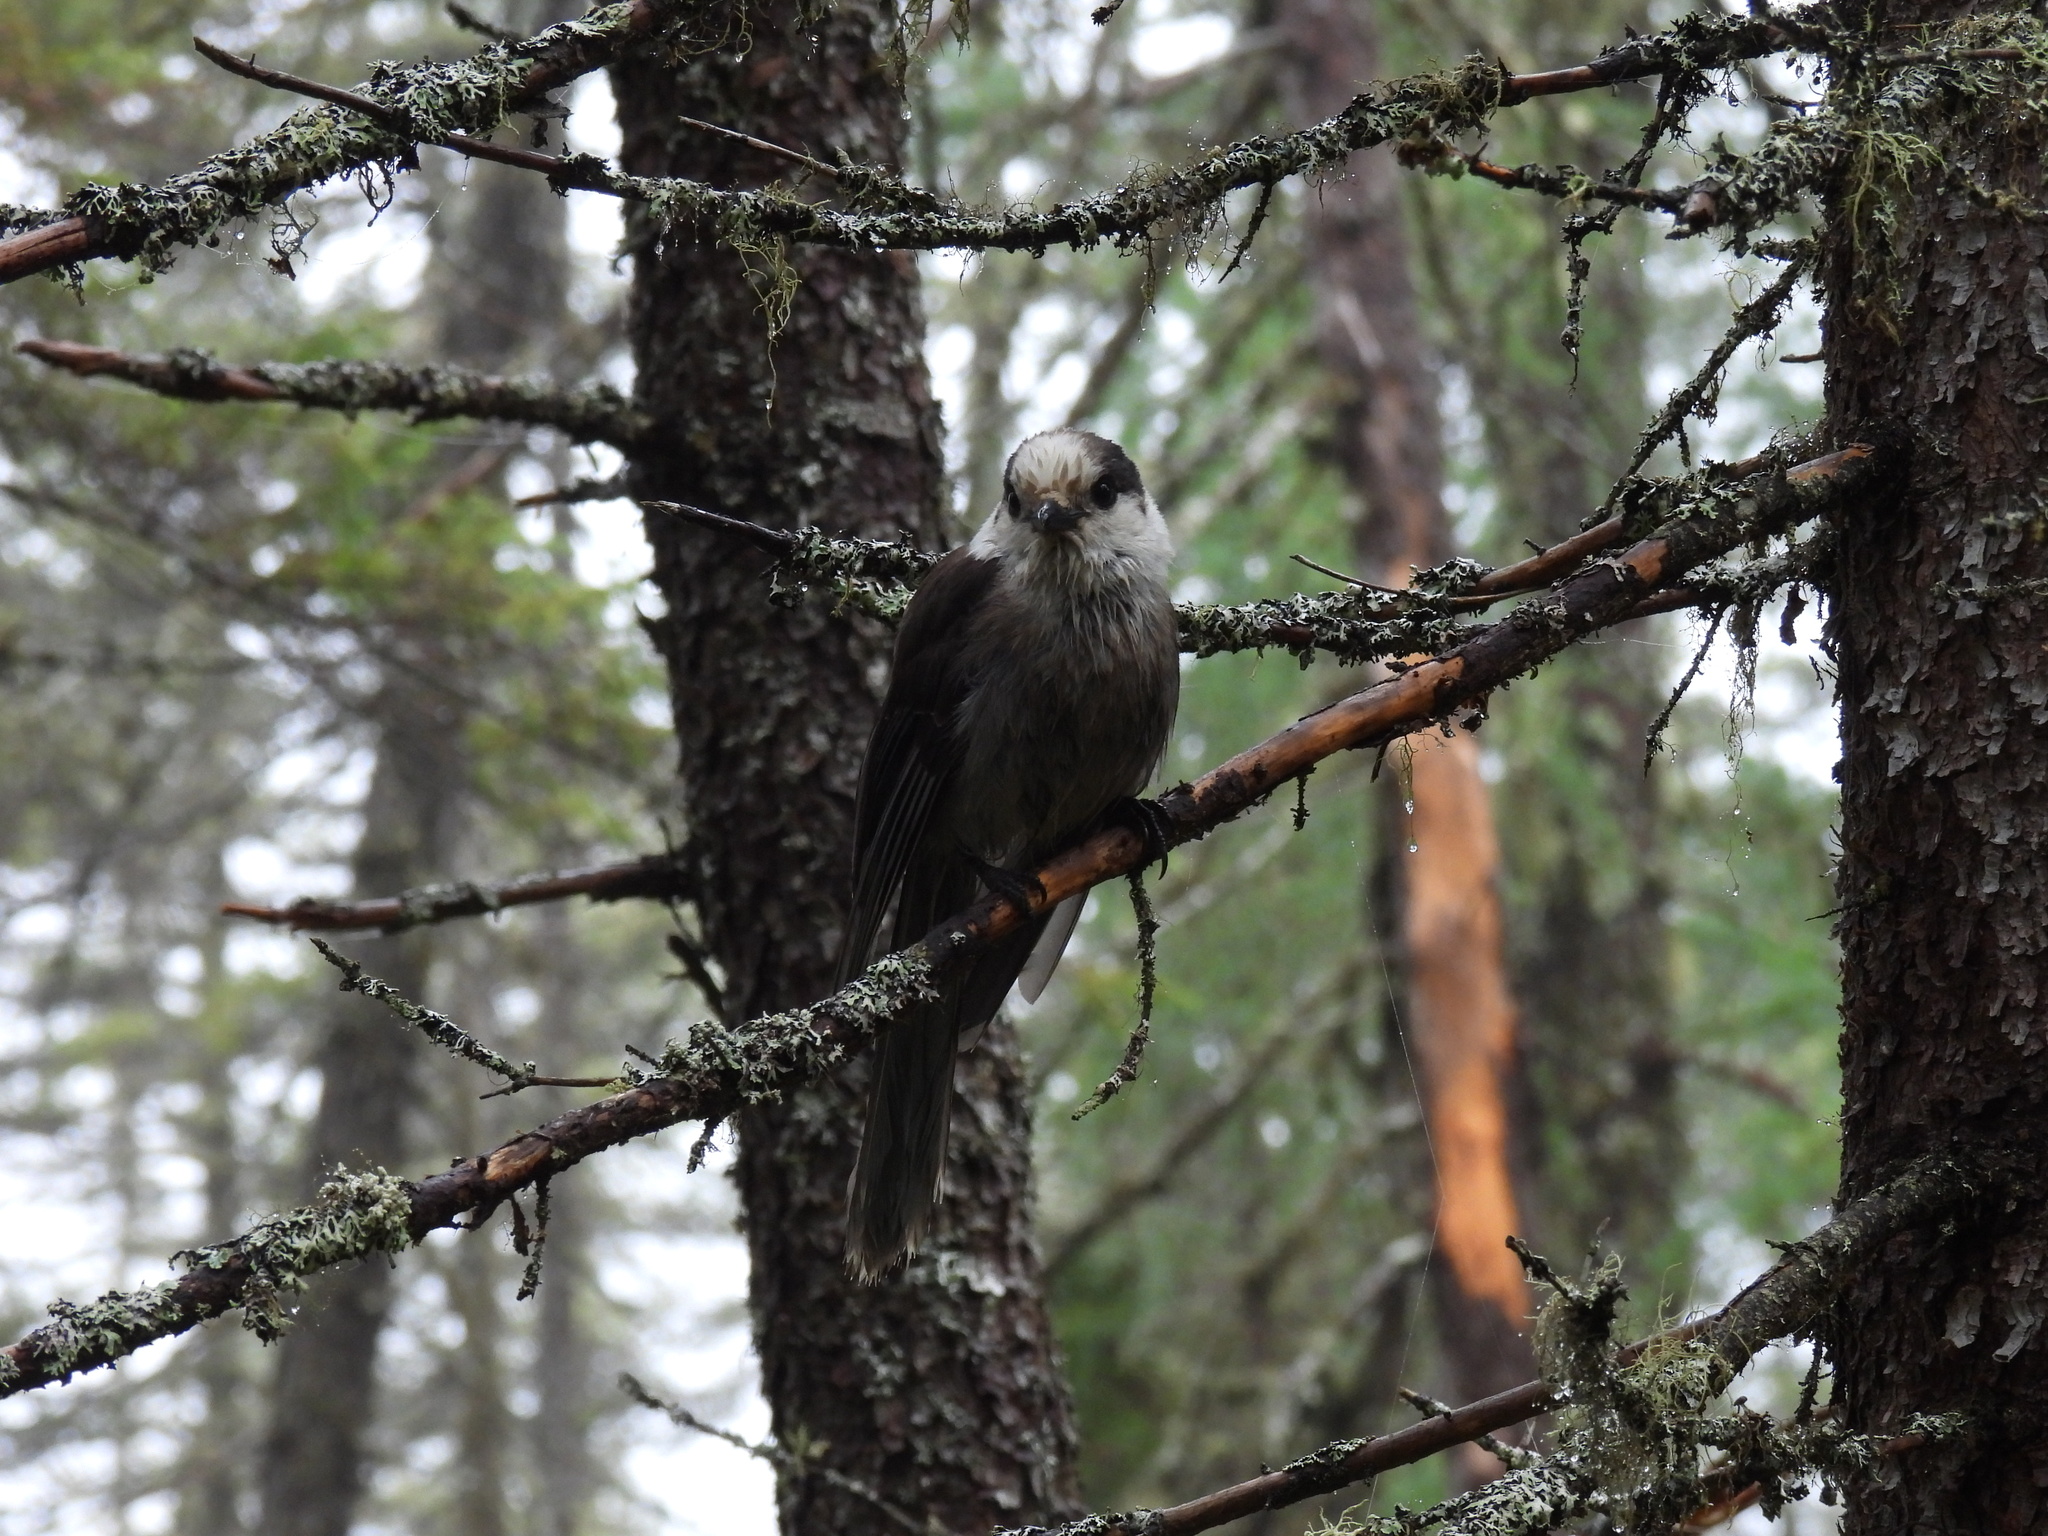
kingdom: Animalia
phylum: Chordata
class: Aves
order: Passeriformes
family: Corvidae
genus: Perisoreus
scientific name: Perisoreus canadensis
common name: Gray jay
